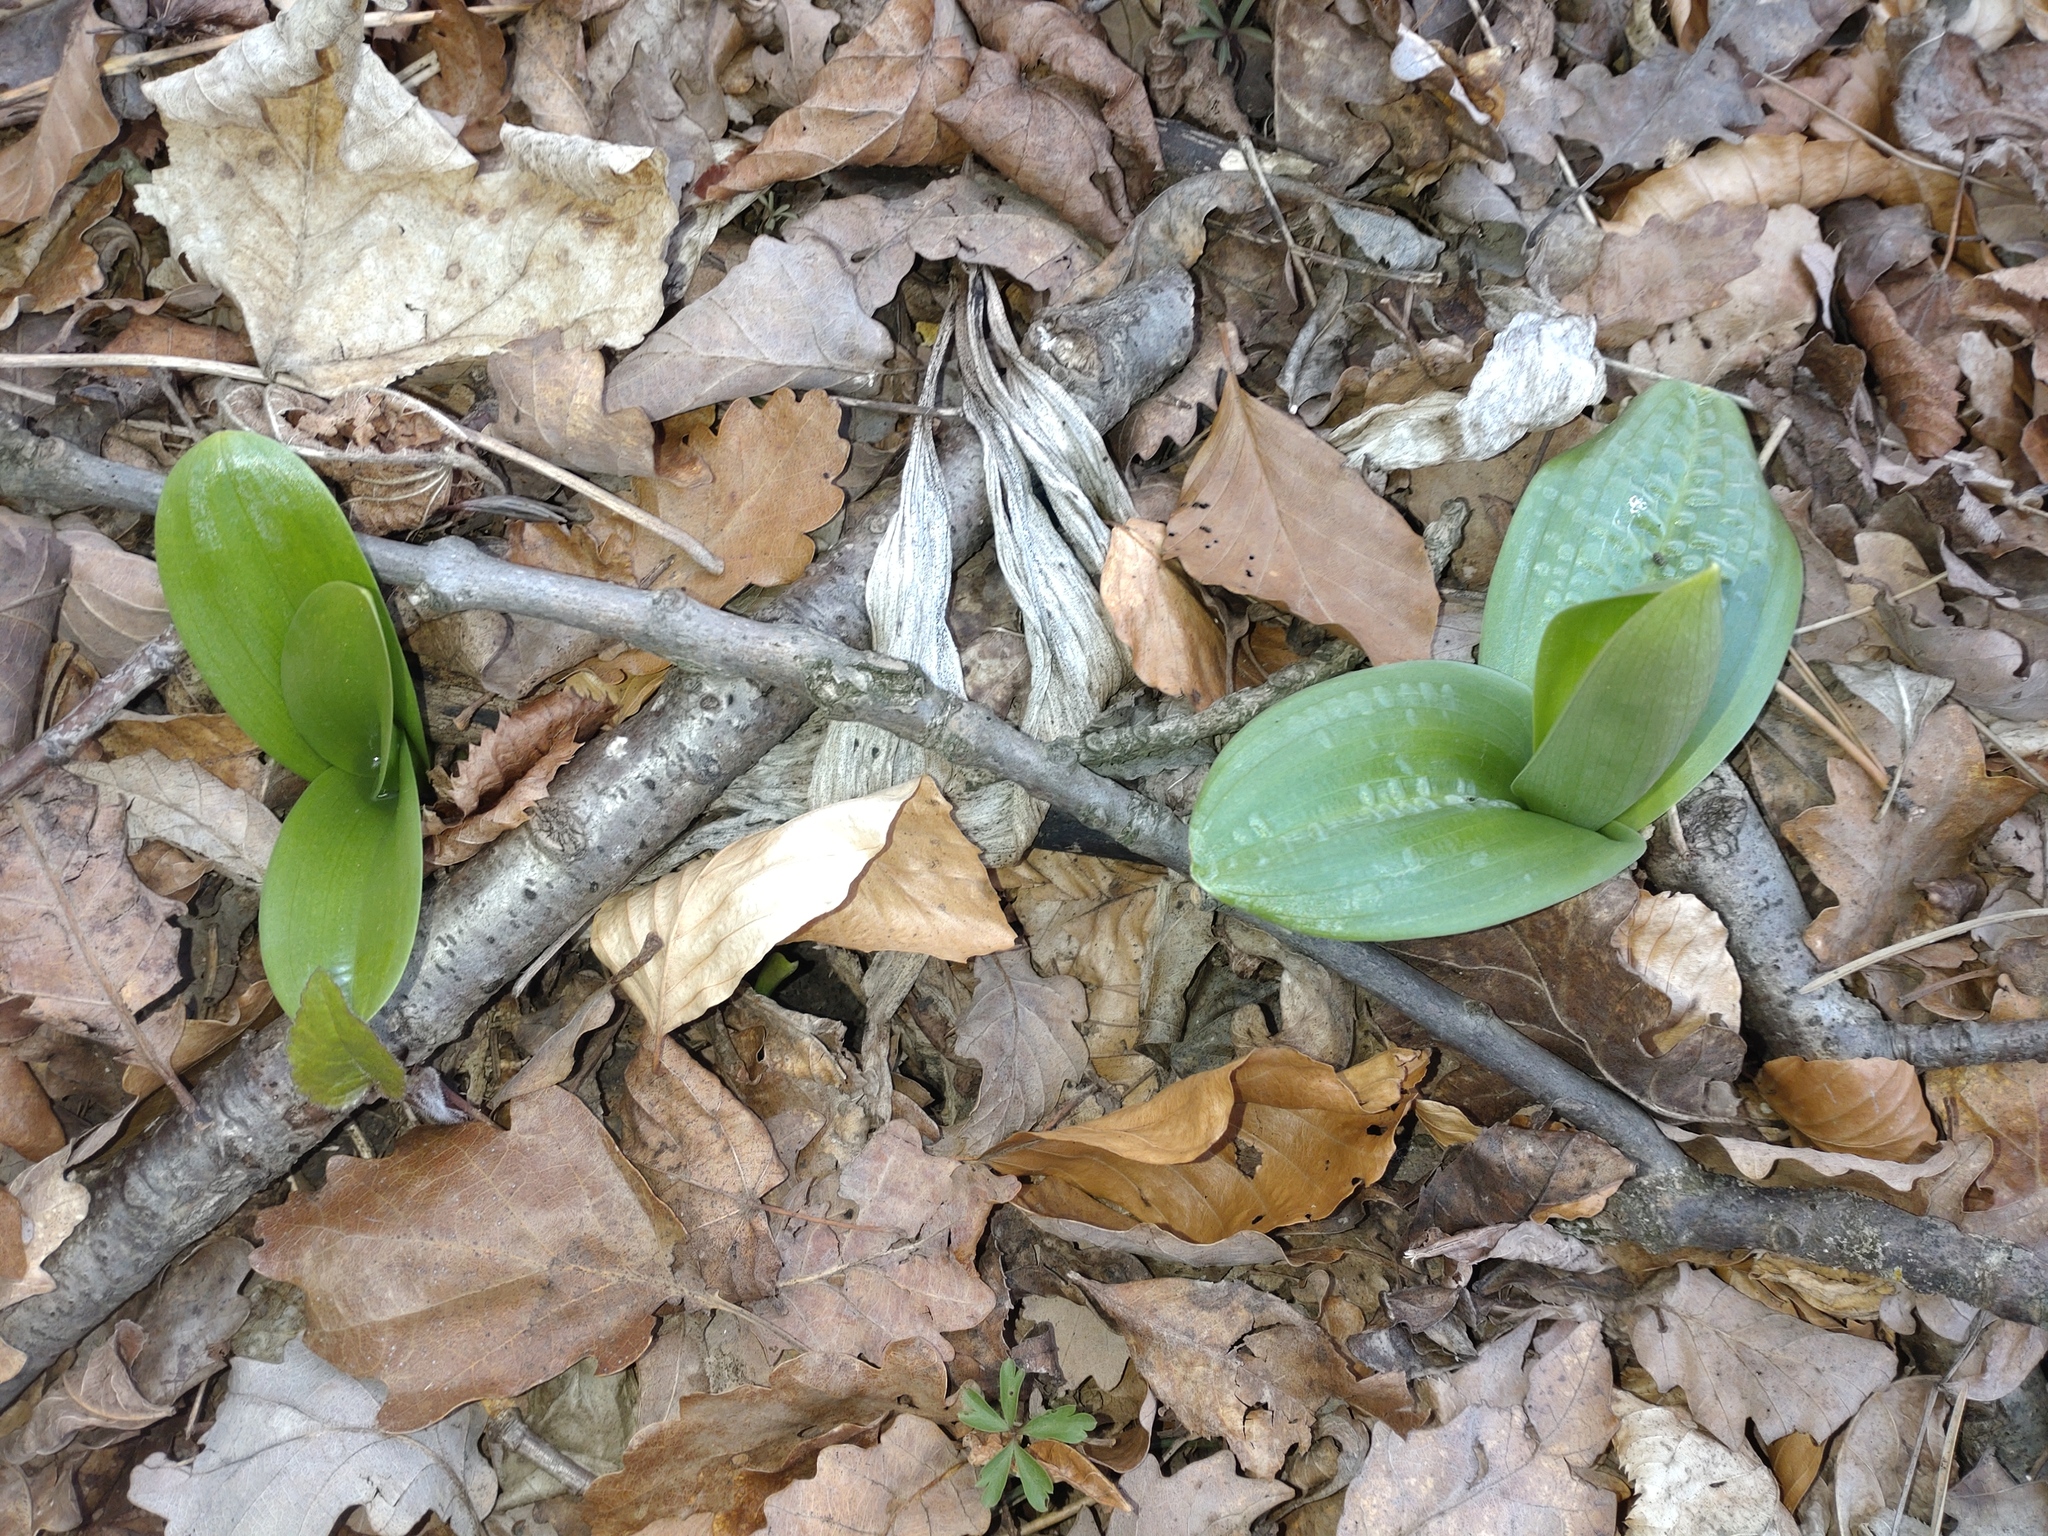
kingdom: Plantae
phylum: Tracheophyta
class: Liliopsida
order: Asparagales
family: Orchidaceae
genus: Orchis
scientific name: Orchis pallens
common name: Pale-flowered orchid
